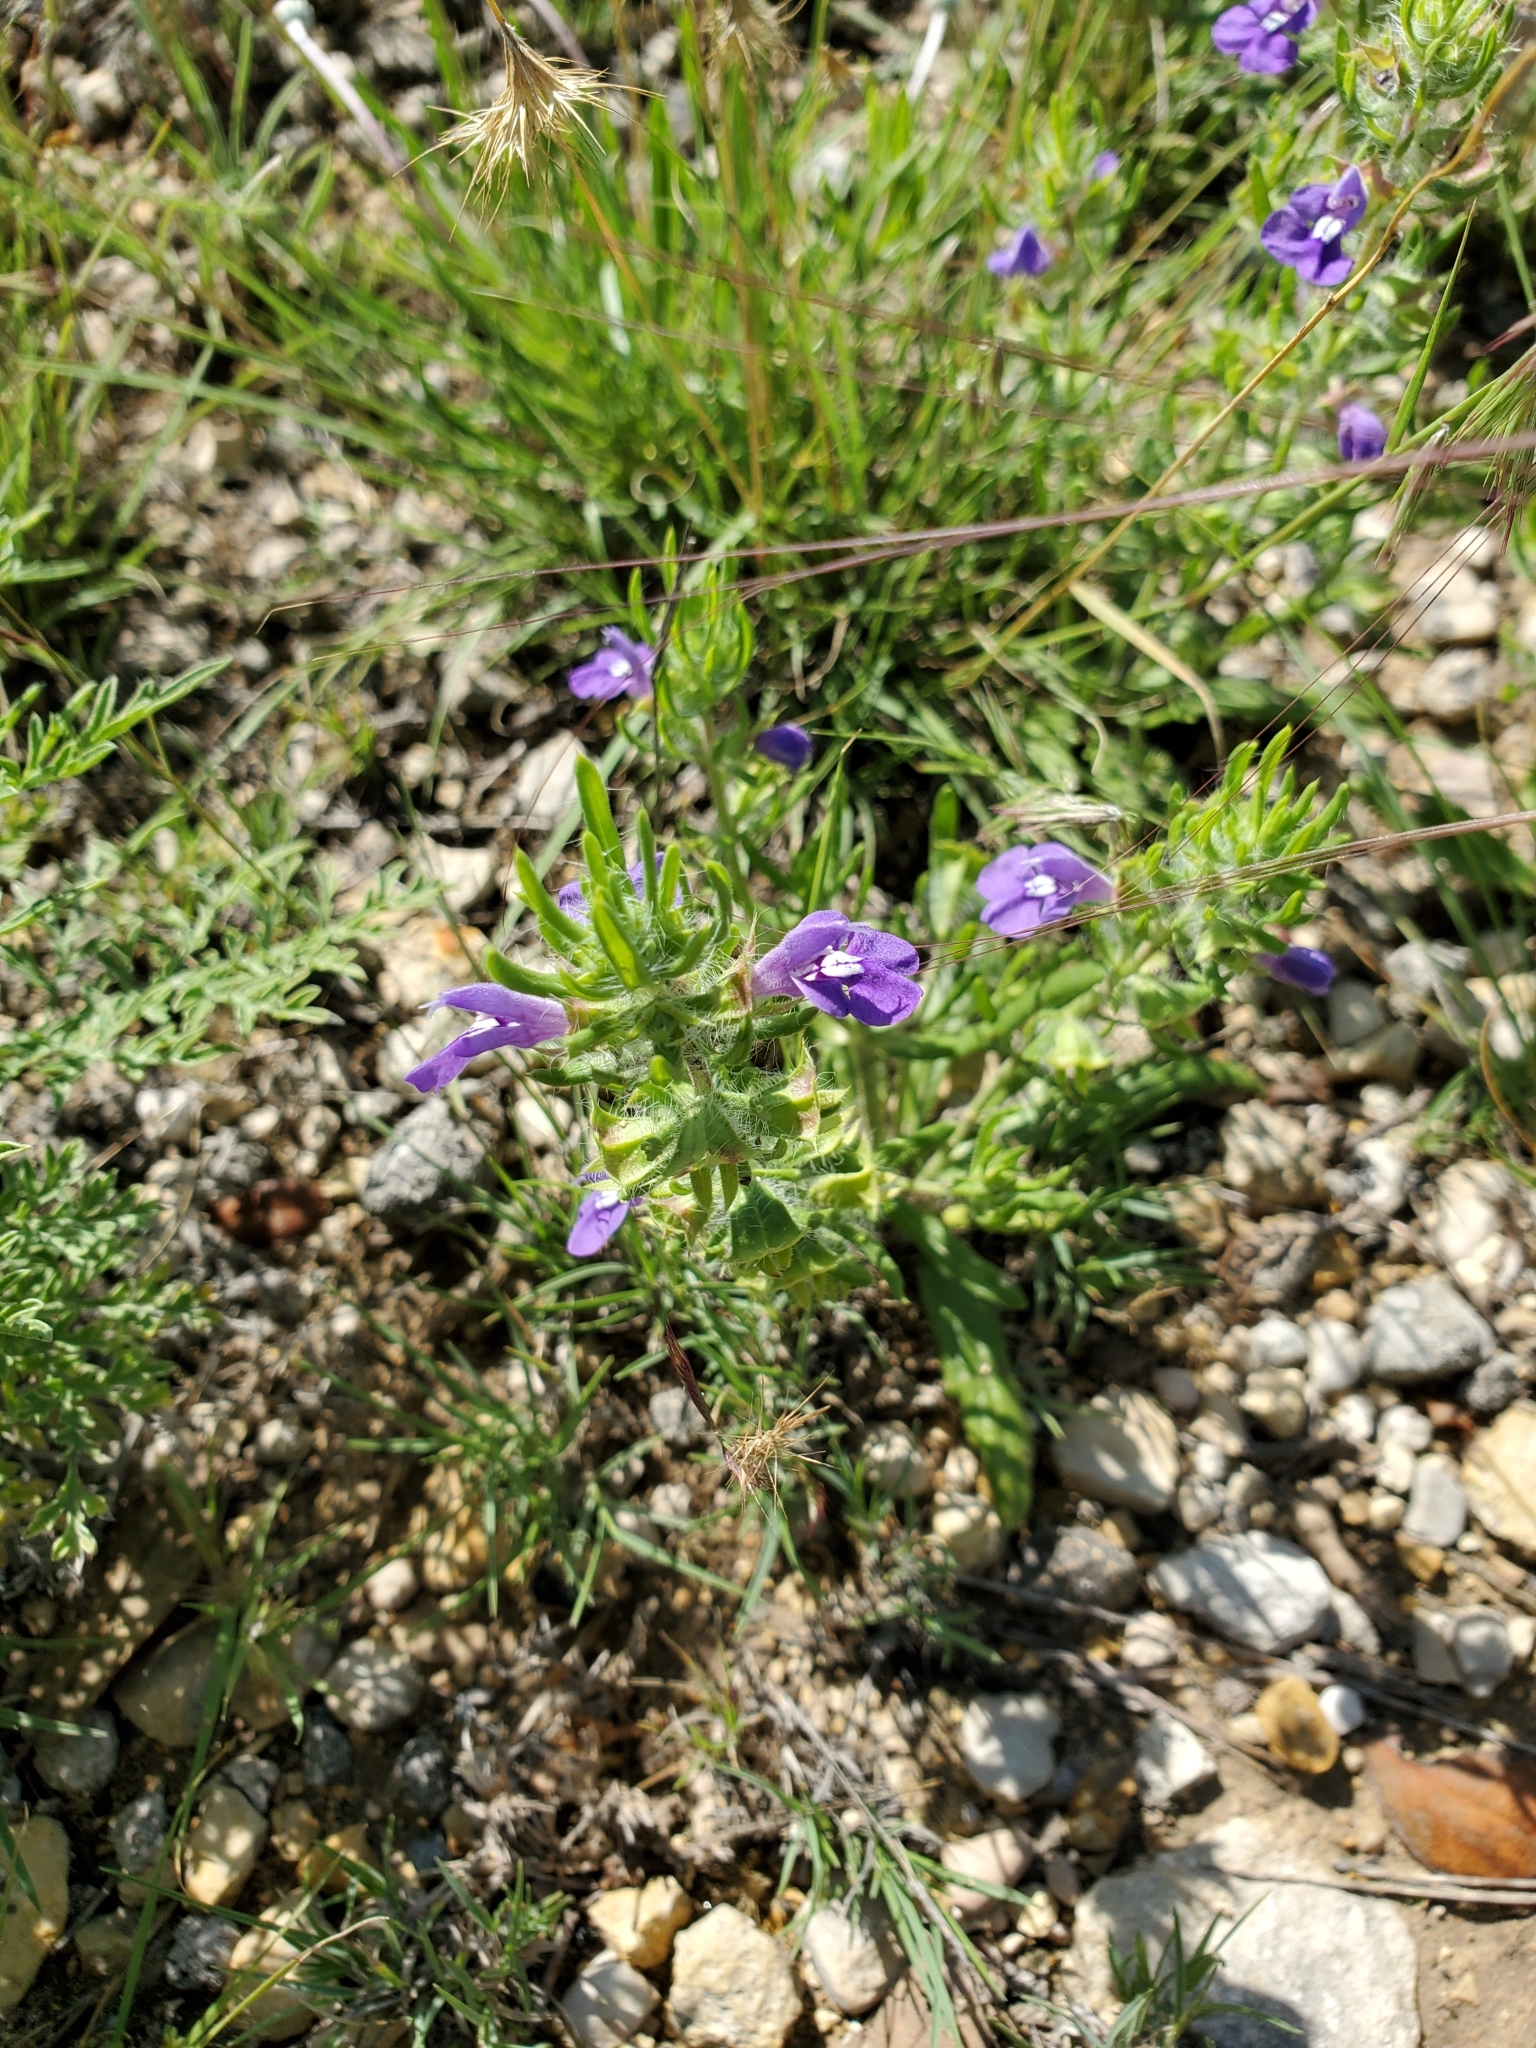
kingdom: Plantae
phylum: Tracheophyta
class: Magnoliopsida
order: Lamiales
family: Lamiaceae
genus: Salvia
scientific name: Salvia texana
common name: Texas sage
